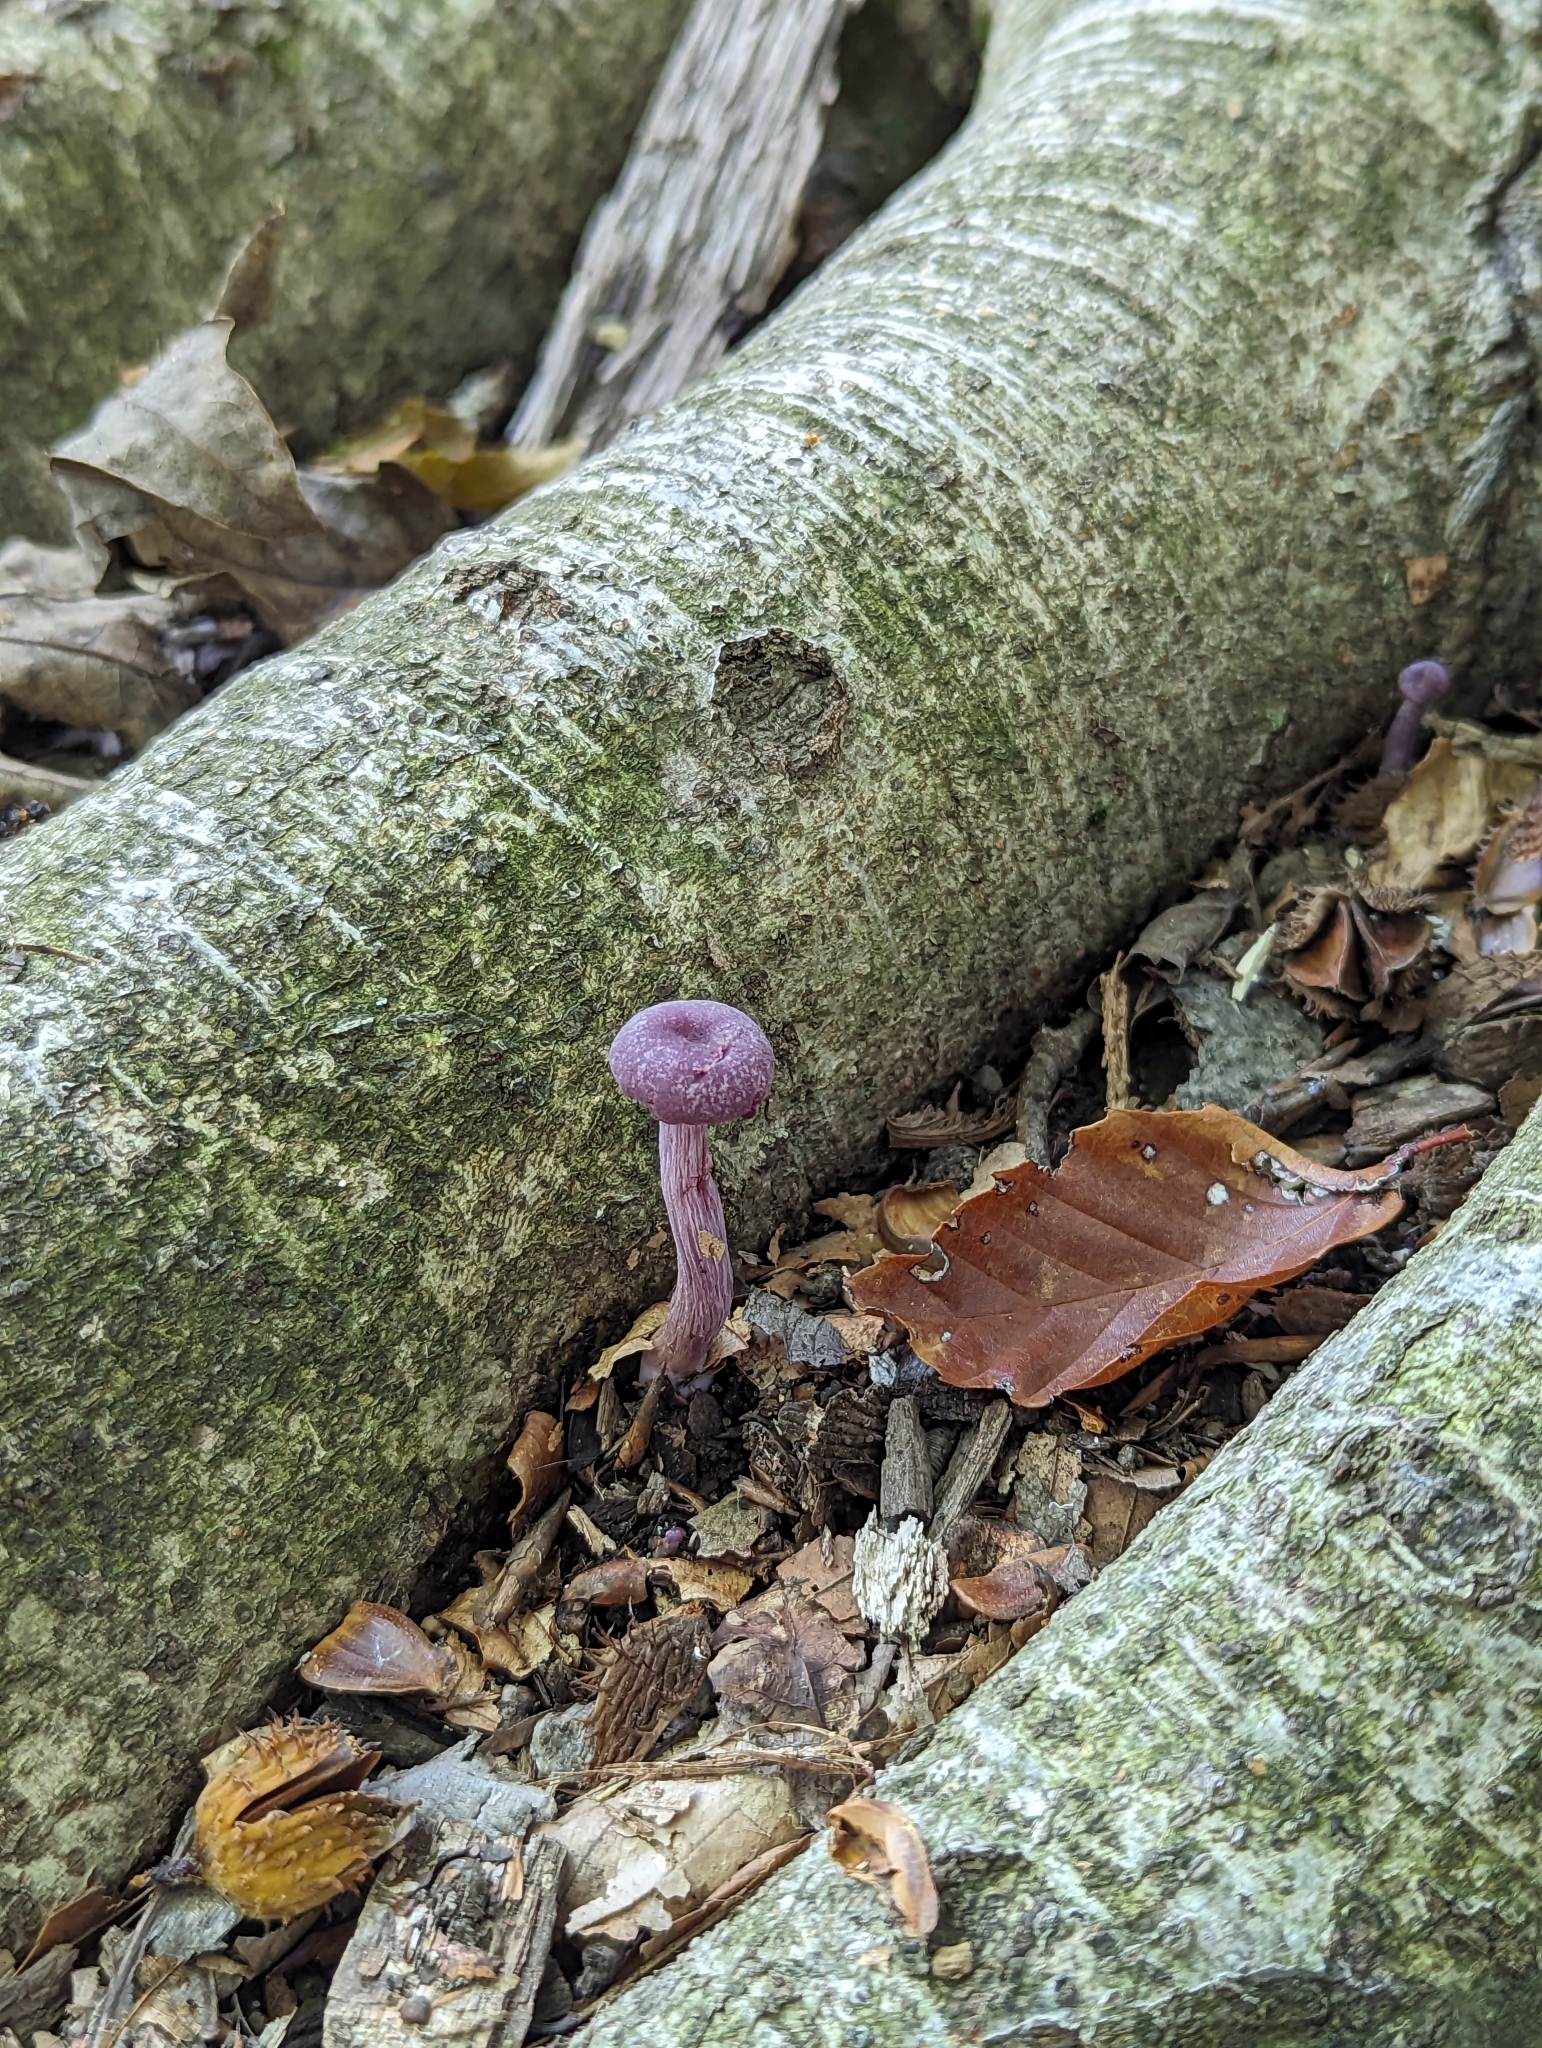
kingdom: Fungi
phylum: Basidiomycota
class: Agaricomycetes
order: Agaricales
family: Hydnangiaceae
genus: Laccaria
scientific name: Laccaria amethystina
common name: Amethyst deceiver
